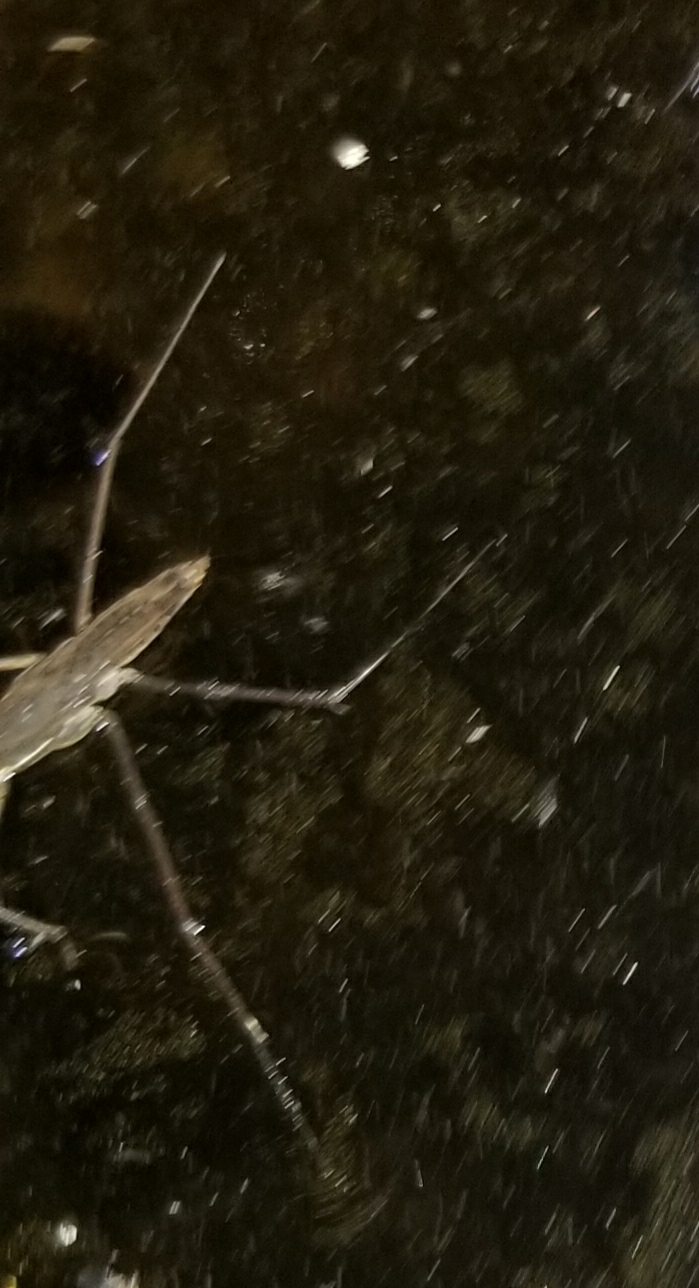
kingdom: Animalia
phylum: Arthropoda
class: Insecta
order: Hemiptera
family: Gerridae
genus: Aquarius
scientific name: Aquarius remigis
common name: Common water strider
